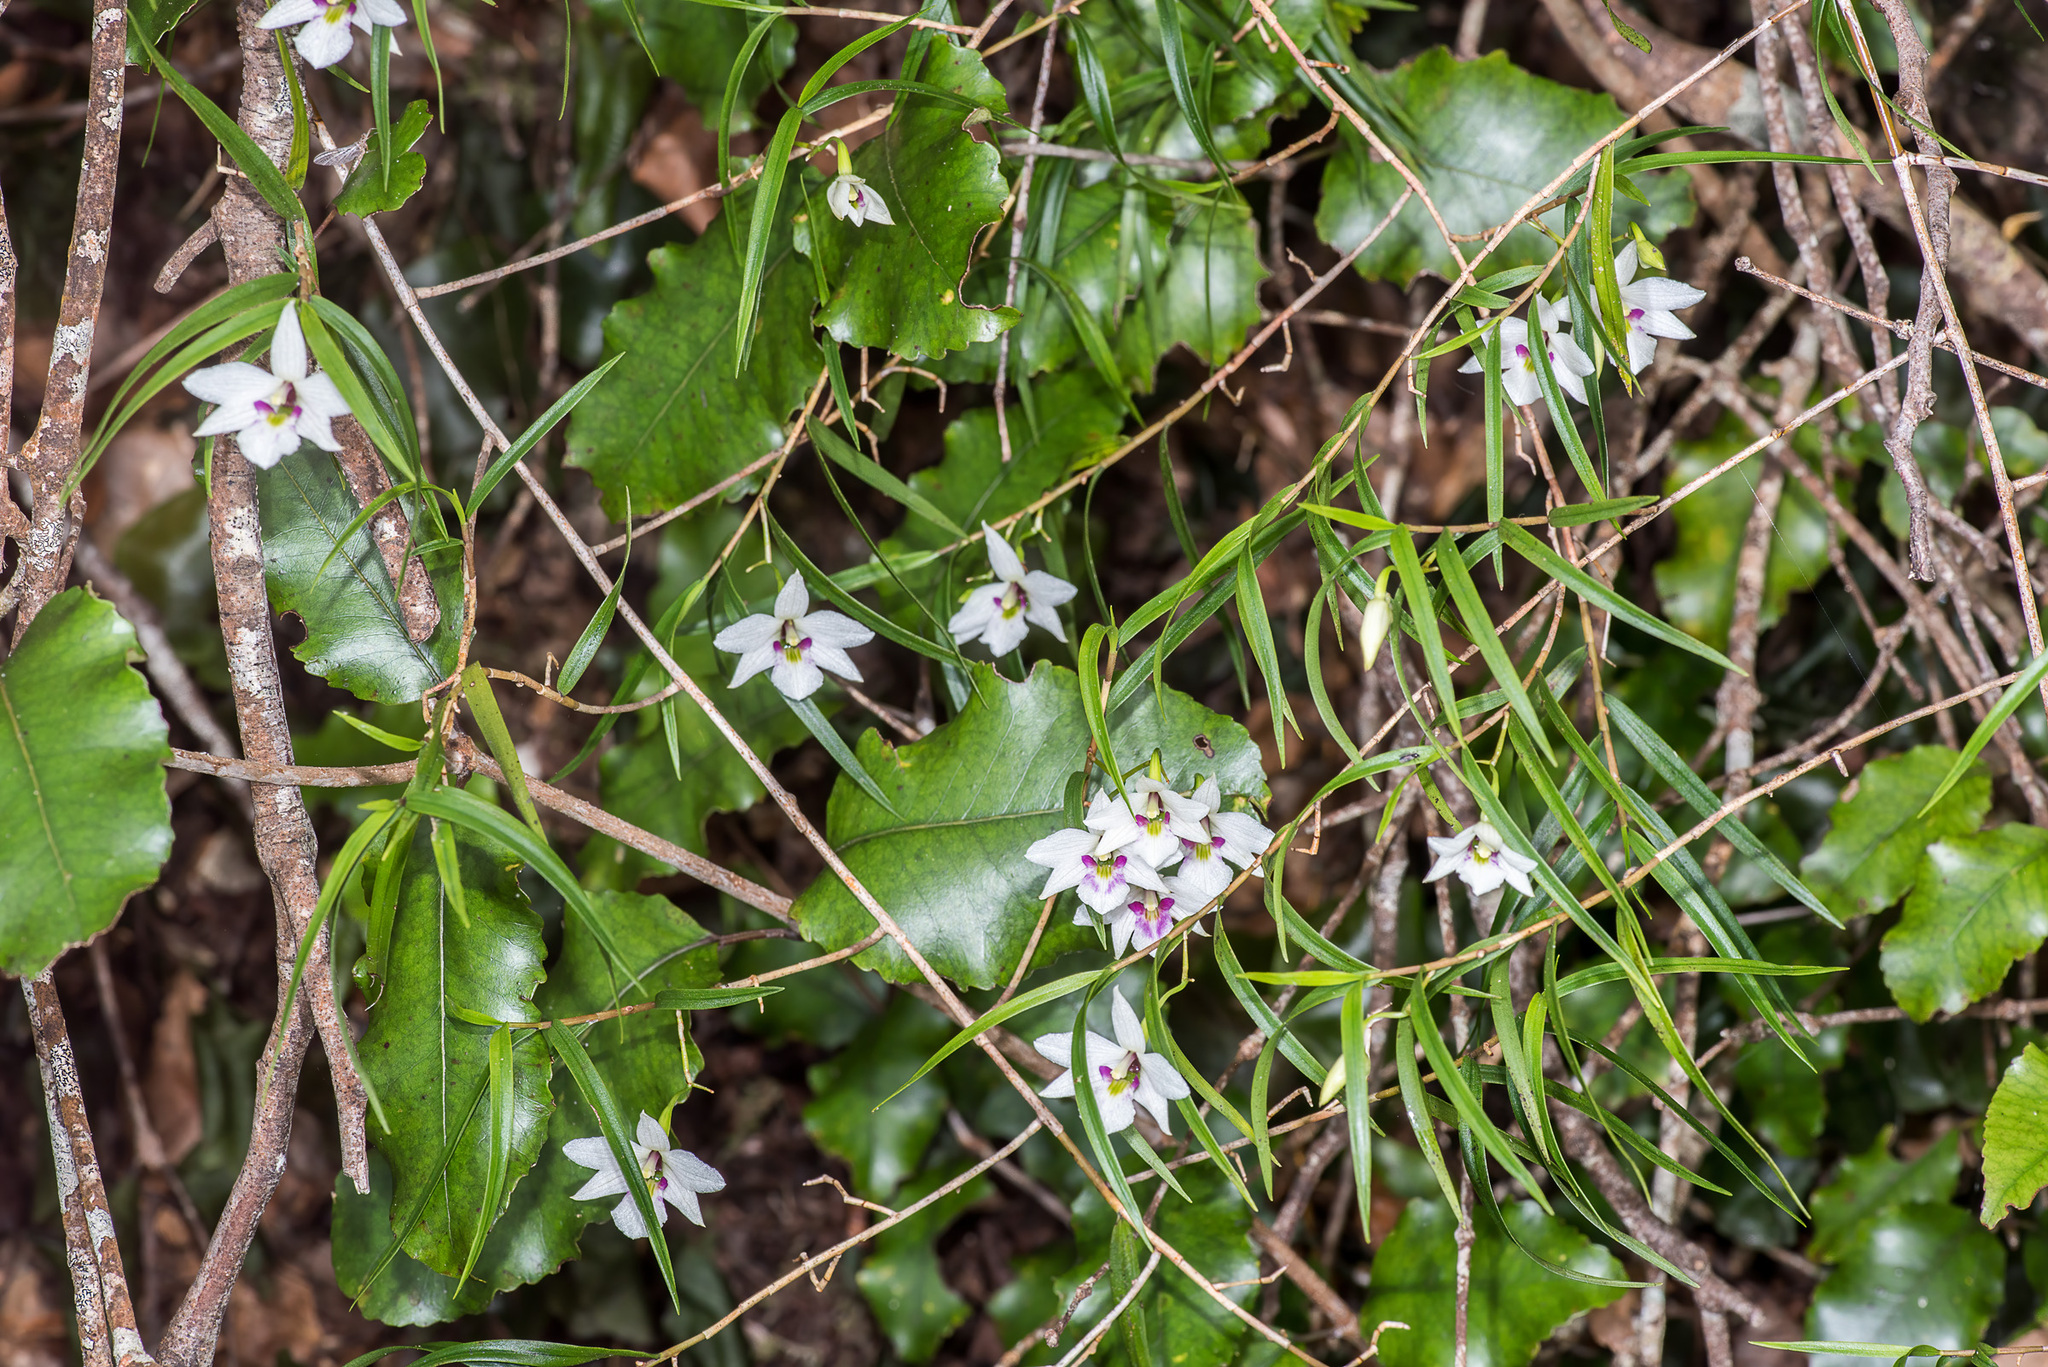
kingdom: Plantae
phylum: Tracheophyta
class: Liliopsida
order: Asparagales
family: Orchidaceae
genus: Dendrobium
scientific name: Dendrobium cunninghamii
